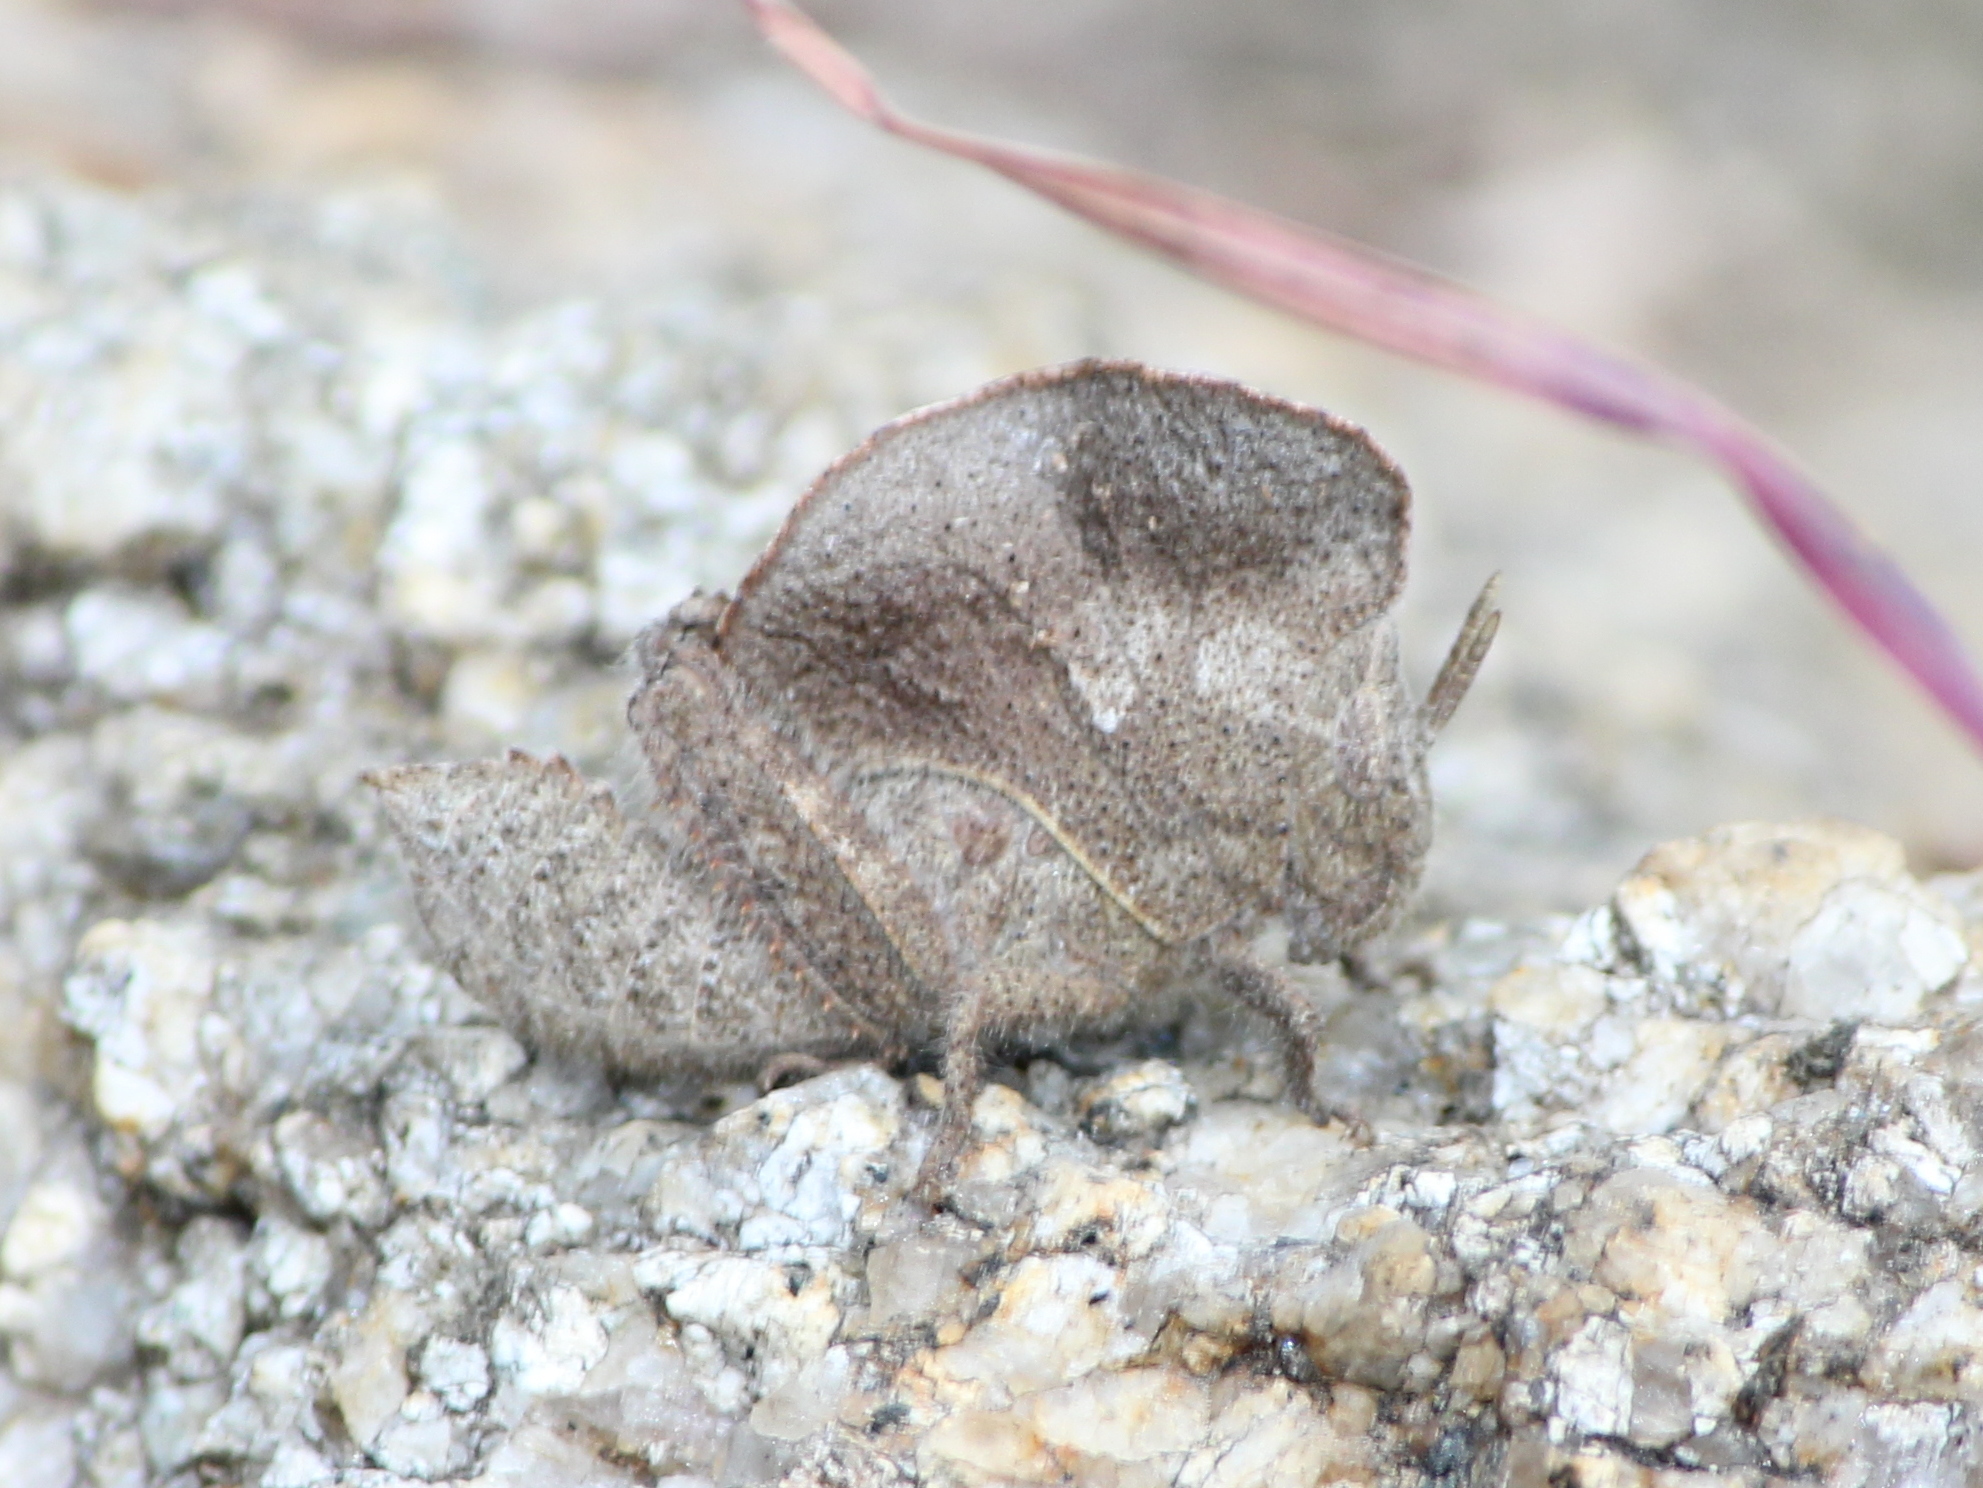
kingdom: Animalia
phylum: Arthropoda
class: Insecta
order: Orthoptera
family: Acrididae
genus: Teratodes
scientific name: Teratodes monticollis
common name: Hooded grasshopper
